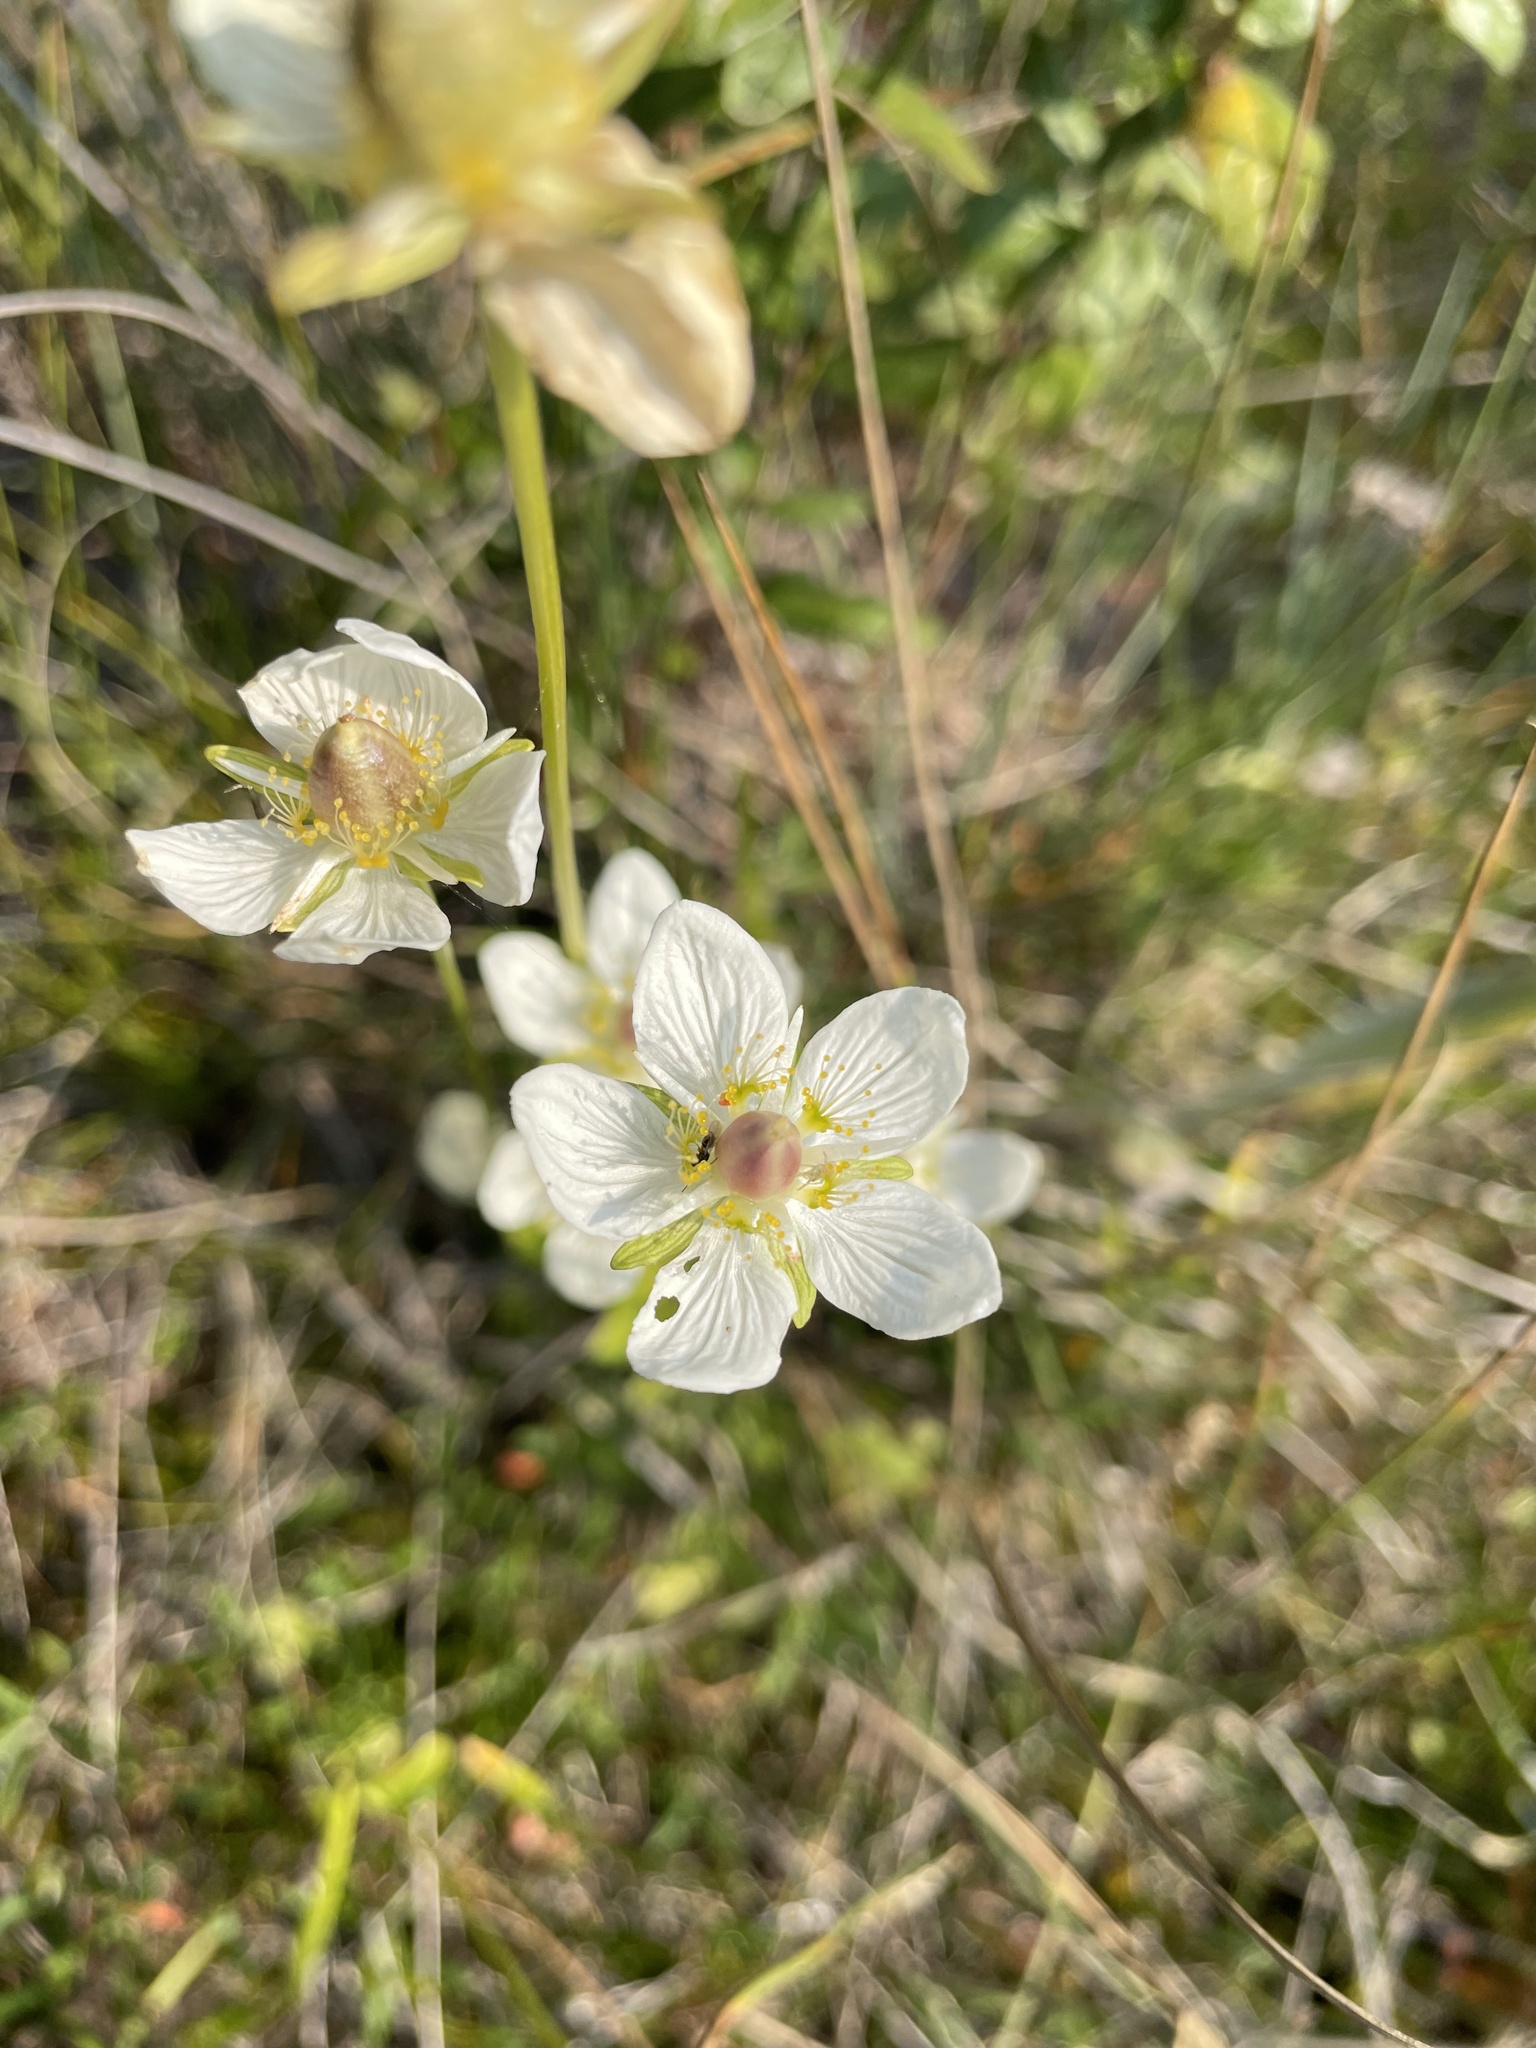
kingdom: Plantae
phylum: Tracheophyta
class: Magnoliopsida
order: Celastrales
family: Parnassiaceae
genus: Parnassia
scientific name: Parnassia palustris
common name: Grass-of-parnassus
